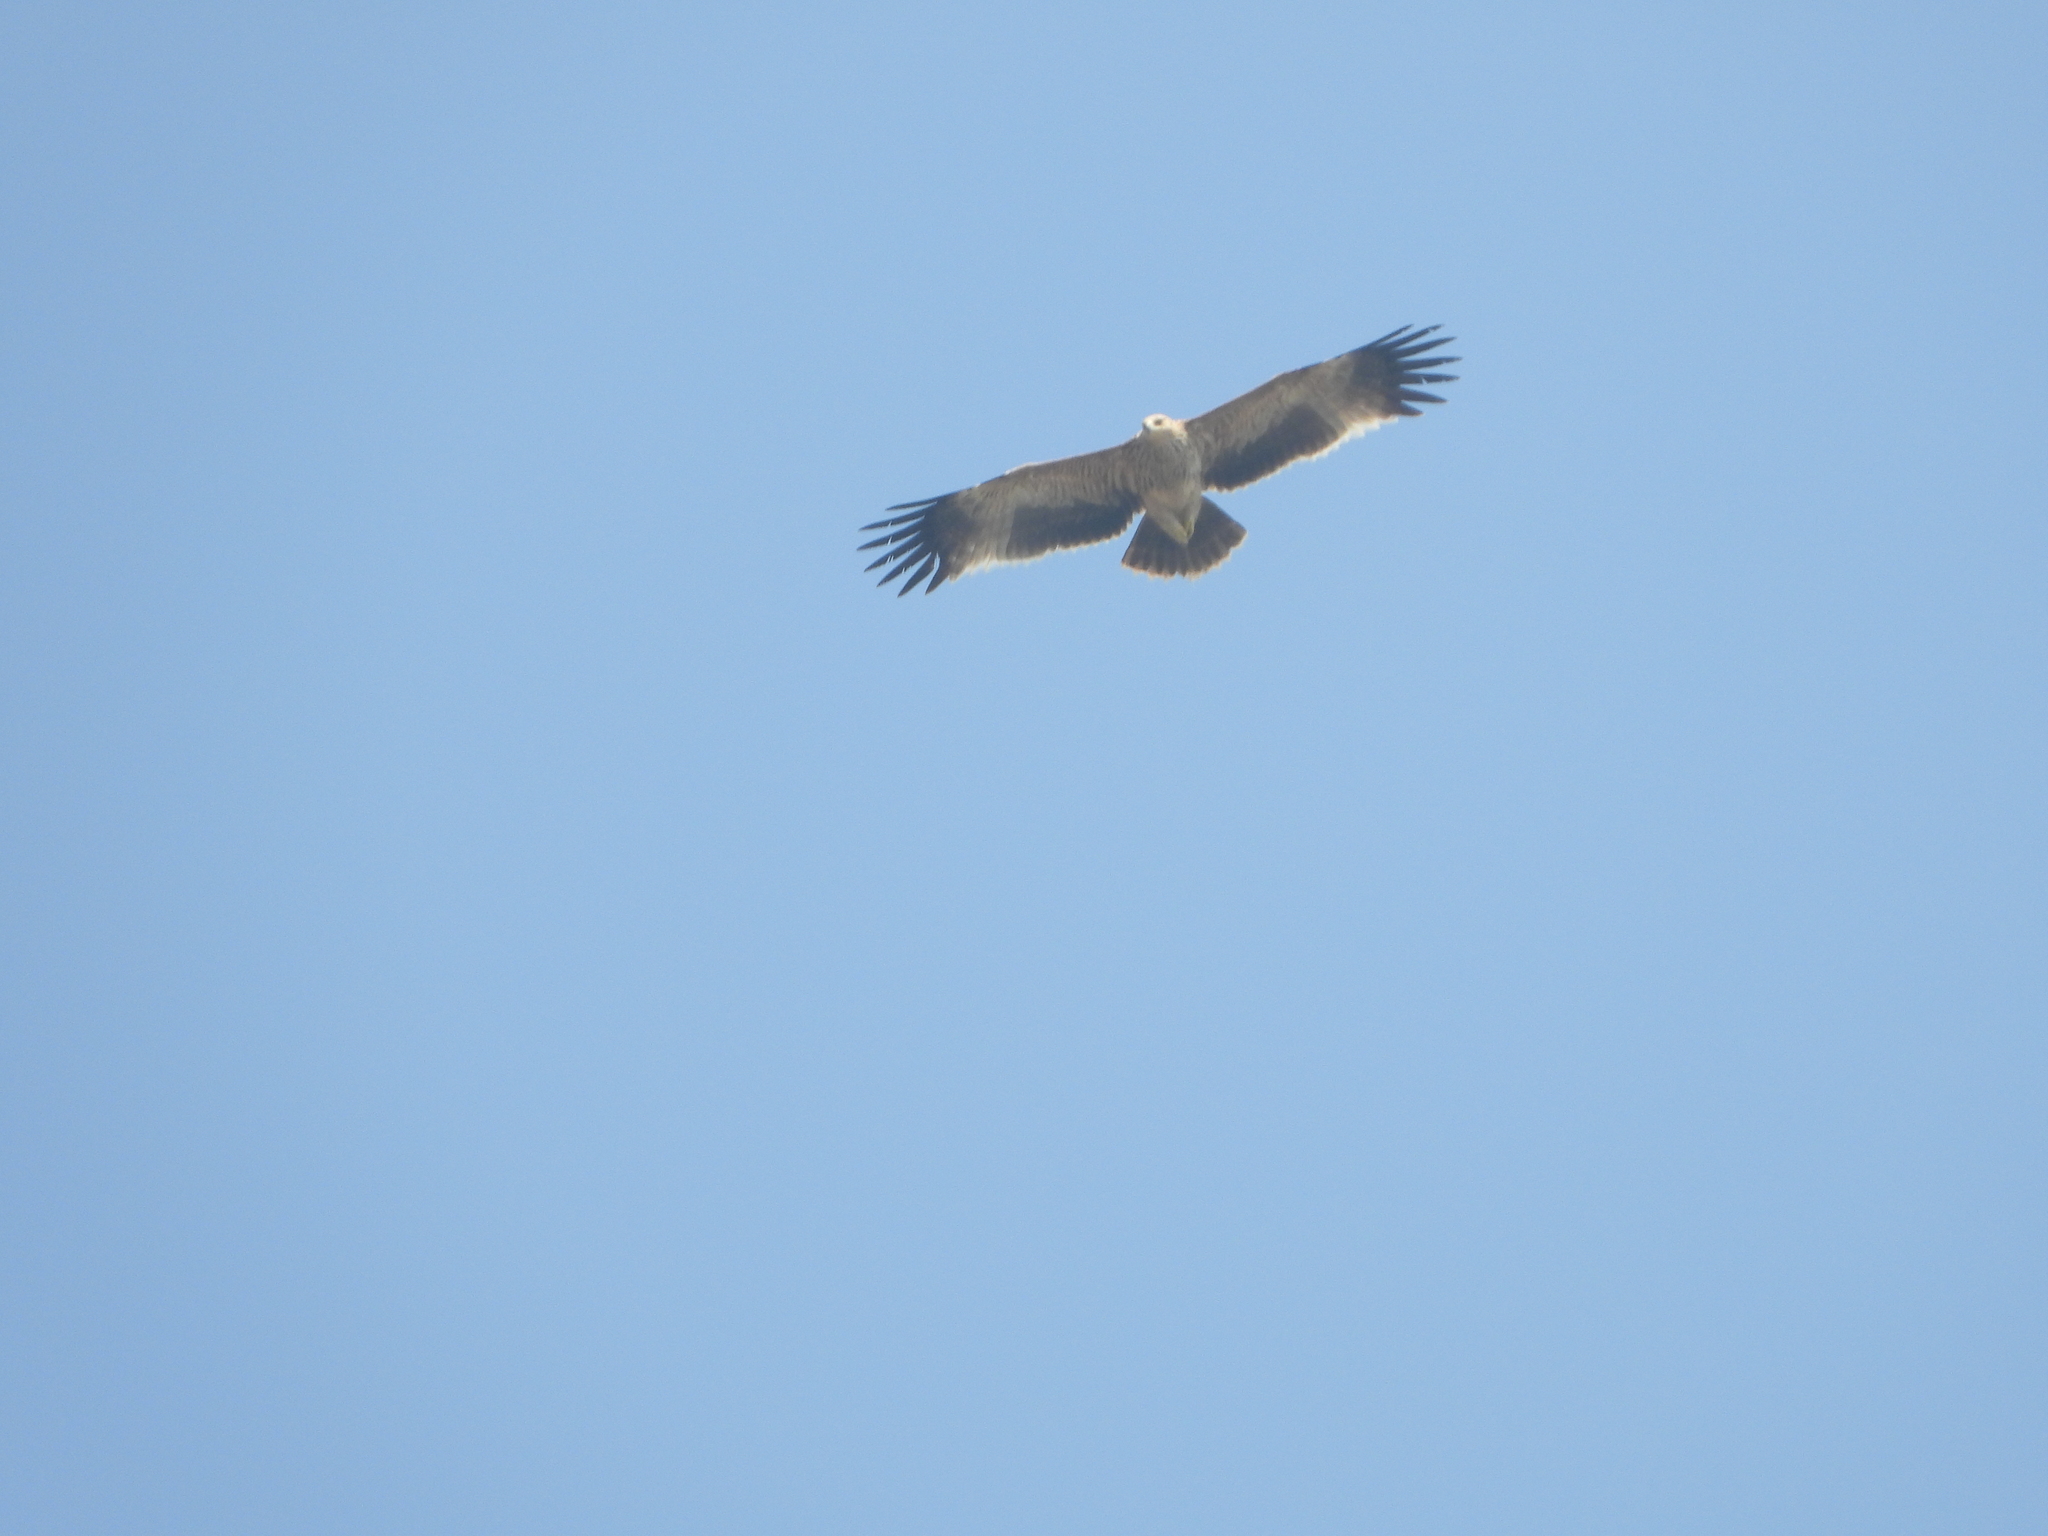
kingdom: Animalia
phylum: Chordata
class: Aves
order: Accipitriformes
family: Accipitridae
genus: Hieraaetus
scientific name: Hieraaetus pennatus
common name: Booted eagle
